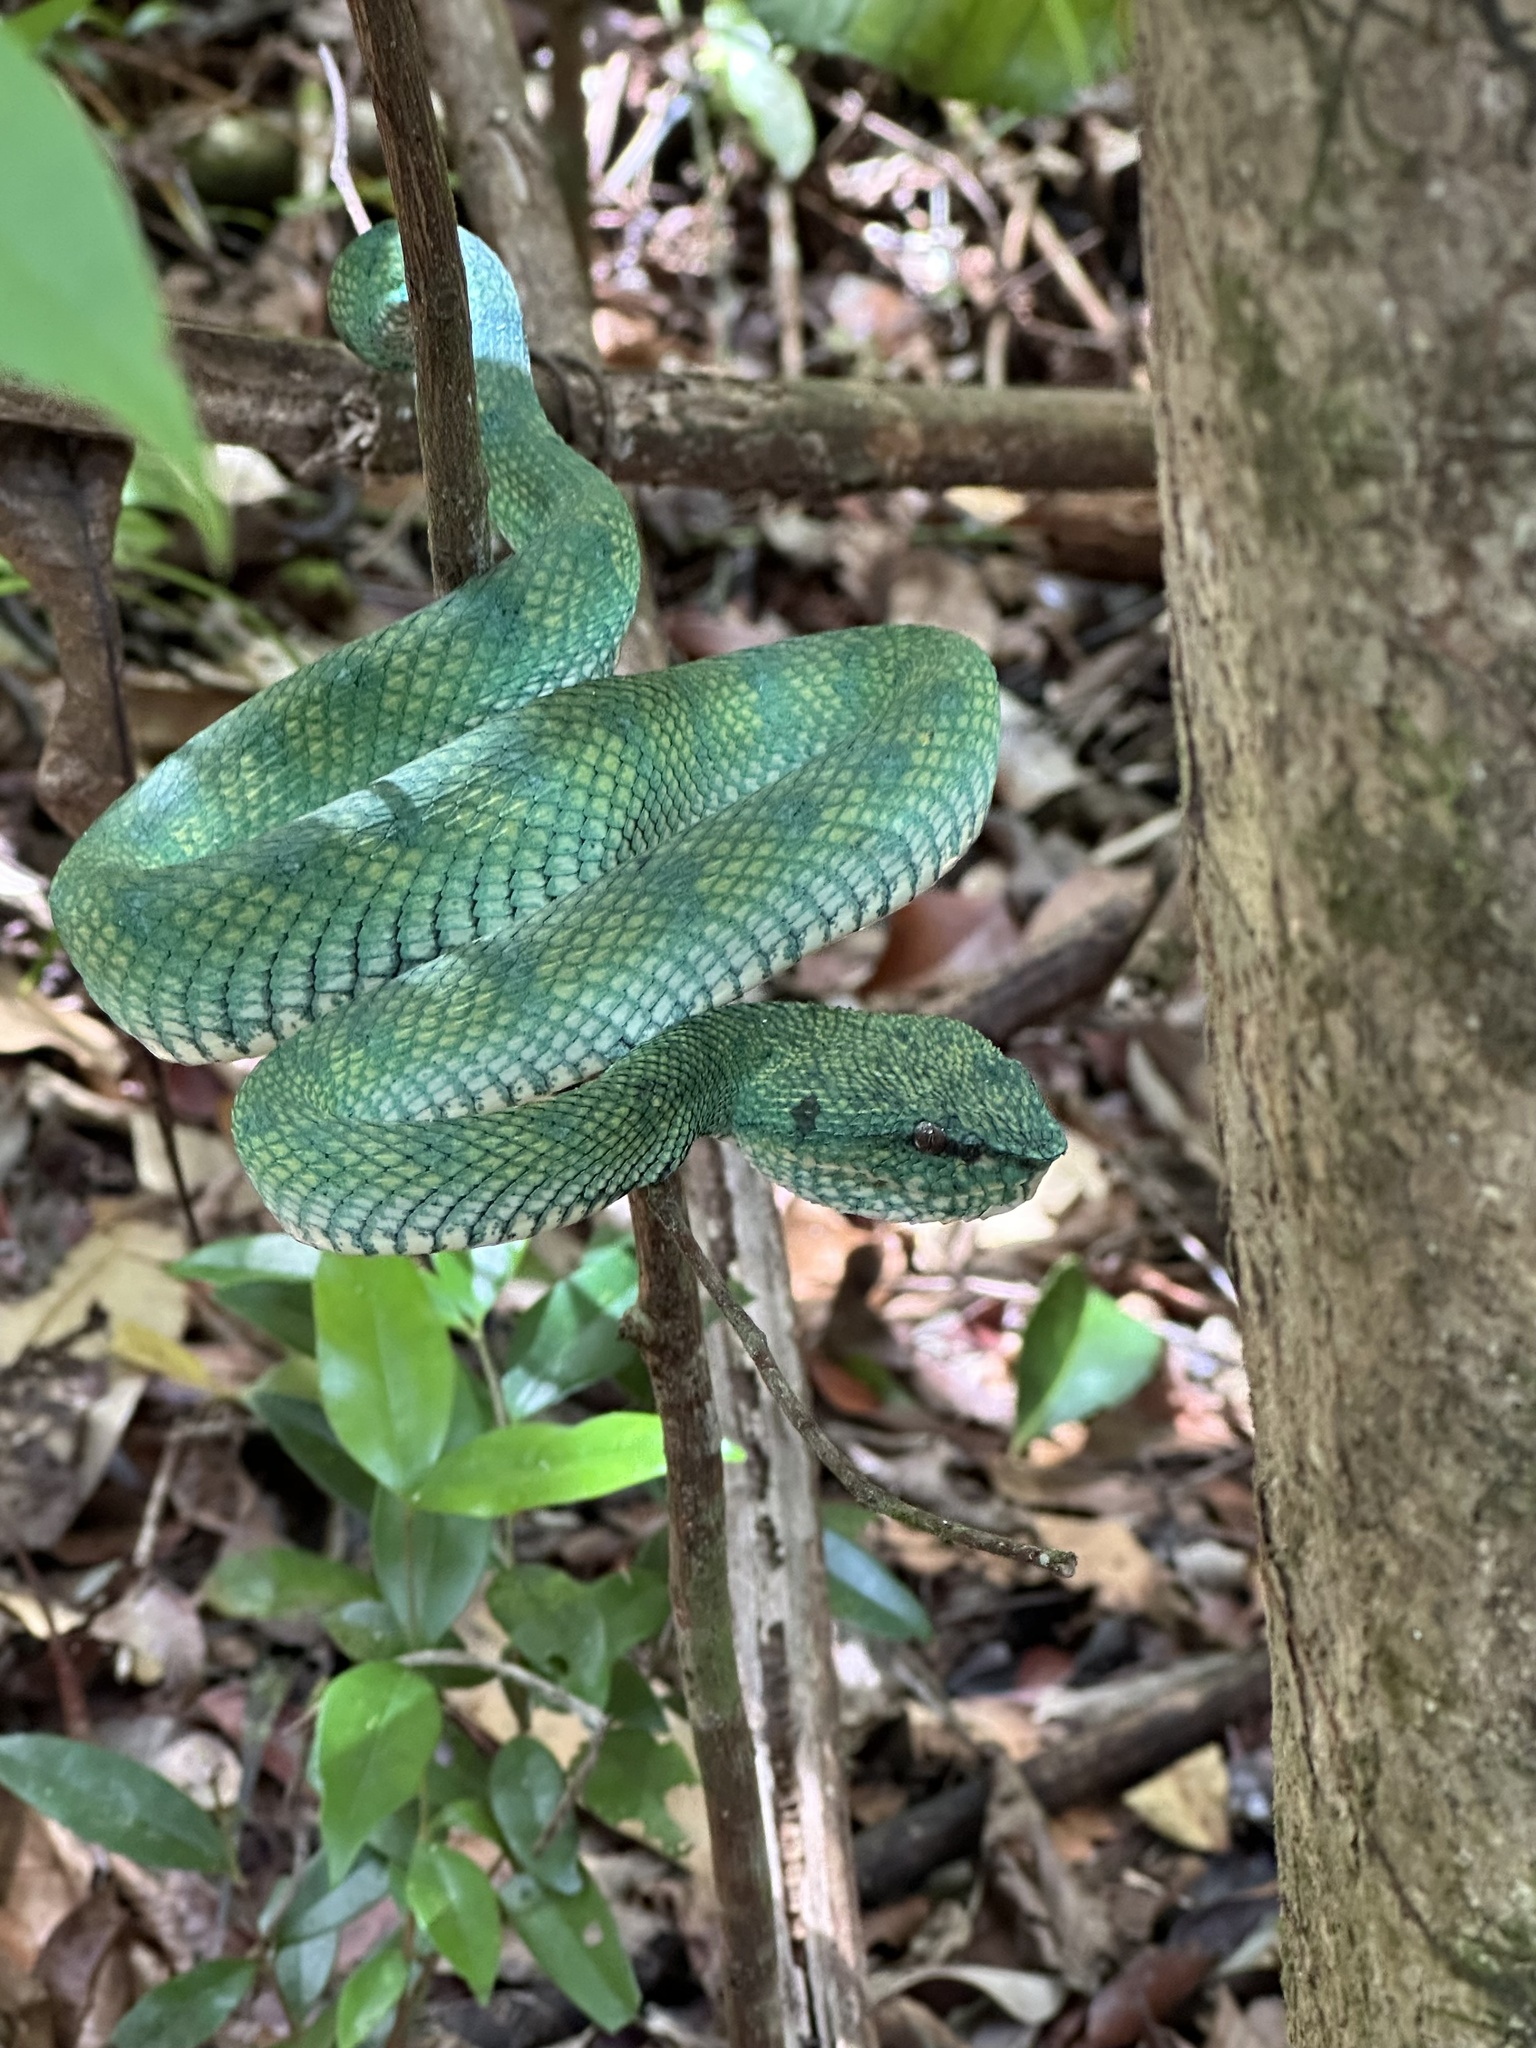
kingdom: Animalia
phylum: Chordata
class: Squamata
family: Viperidae
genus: Tropidolaemus
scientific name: Tropidolaemus subannulatus
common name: North philippine temple pitviper
